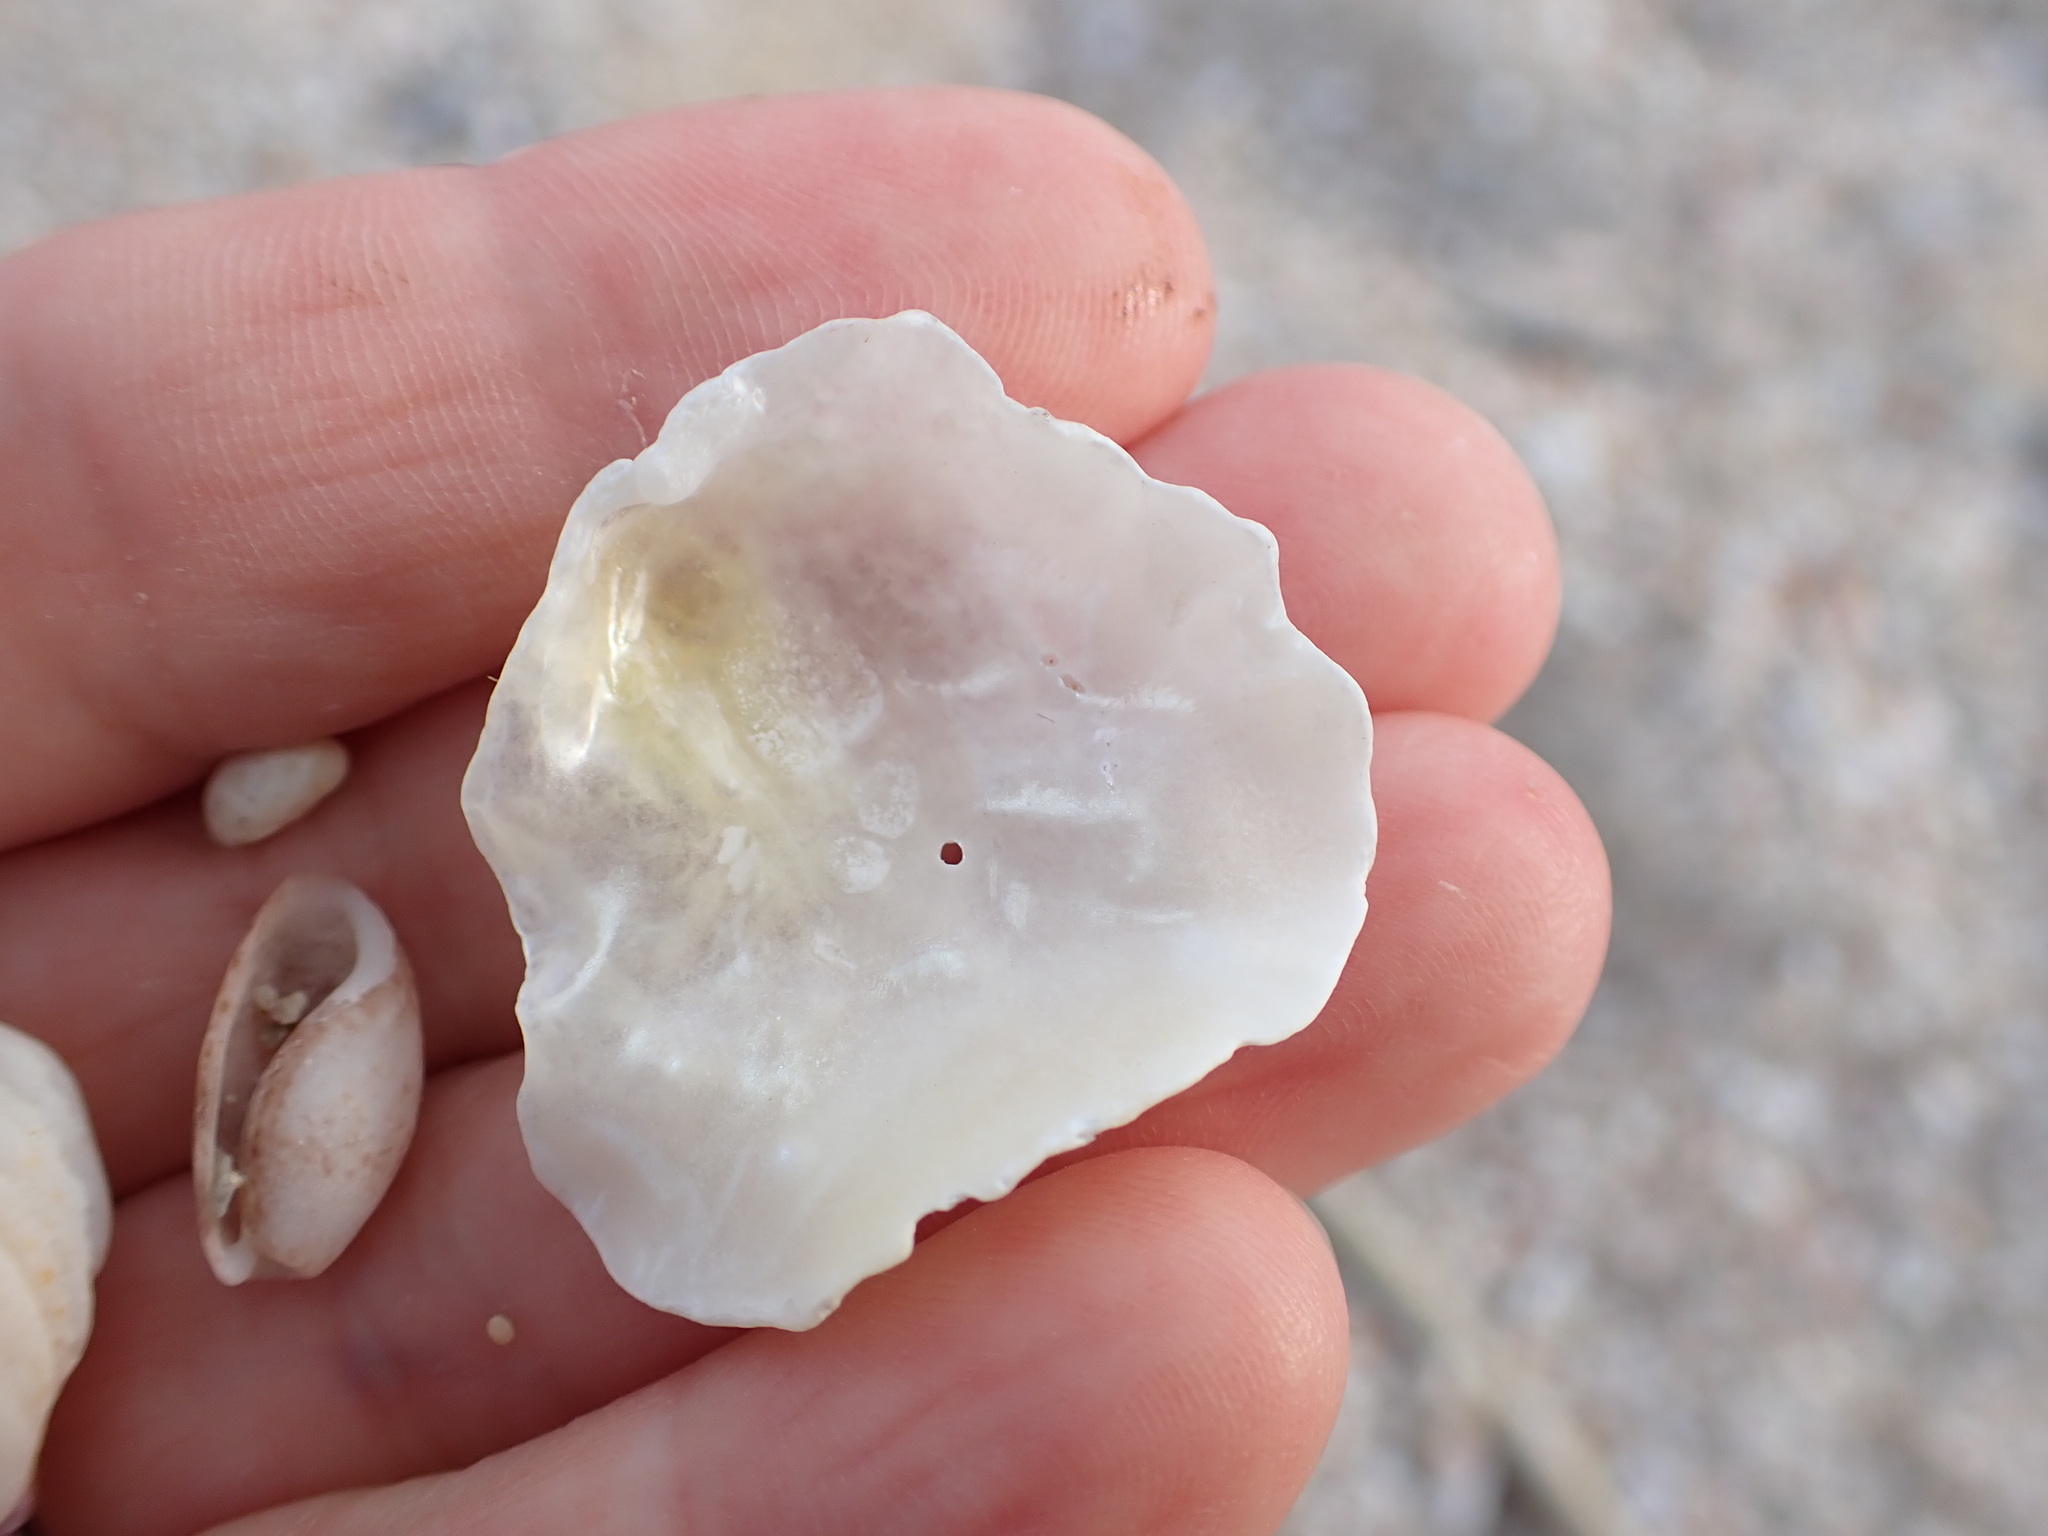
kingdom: Animalia
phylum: Mollusca
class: Bivalvia
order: Pectinida
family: Anomiidae
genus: Anomia
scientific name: Anomia ephippium
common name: Saddle oyster
